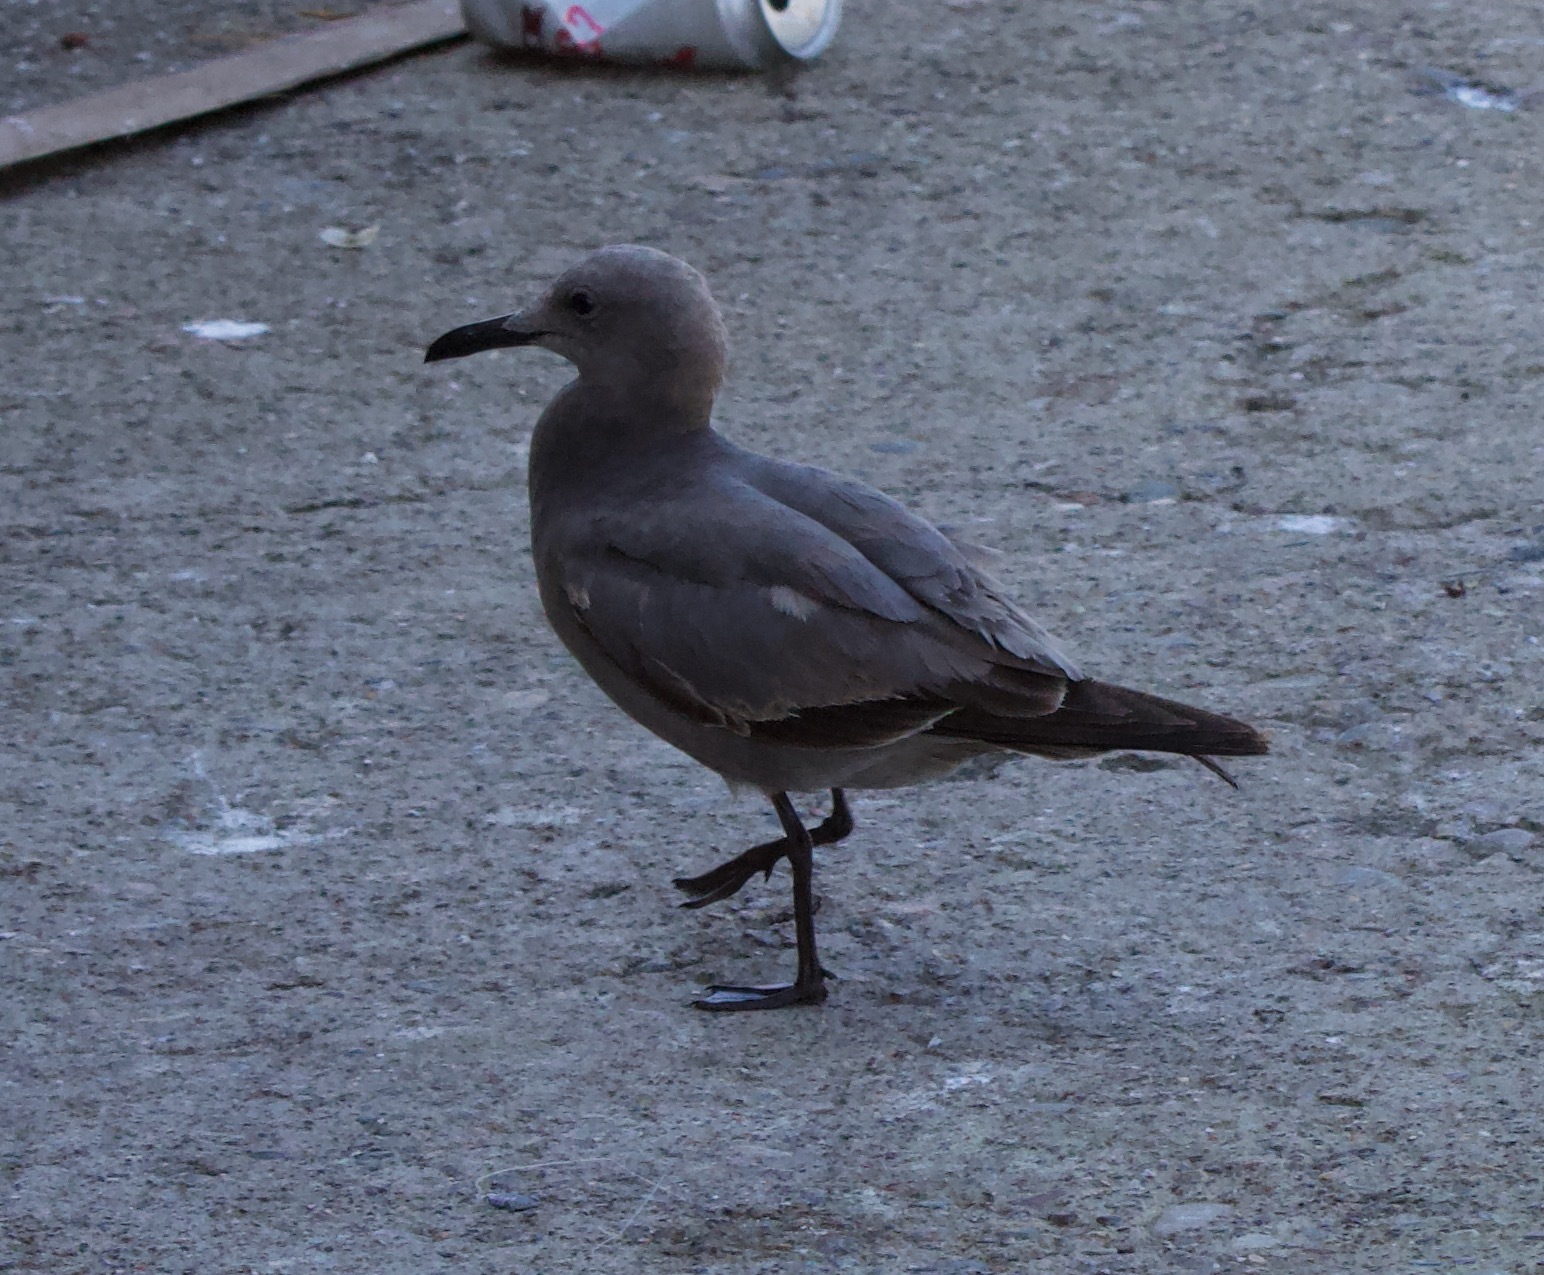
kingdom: Animalia
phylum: Chordata
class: Aves
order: Charadriiformes
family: Laridae
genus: Leucophaeus
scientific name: Leucophaeus modestus
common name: Gray gull
